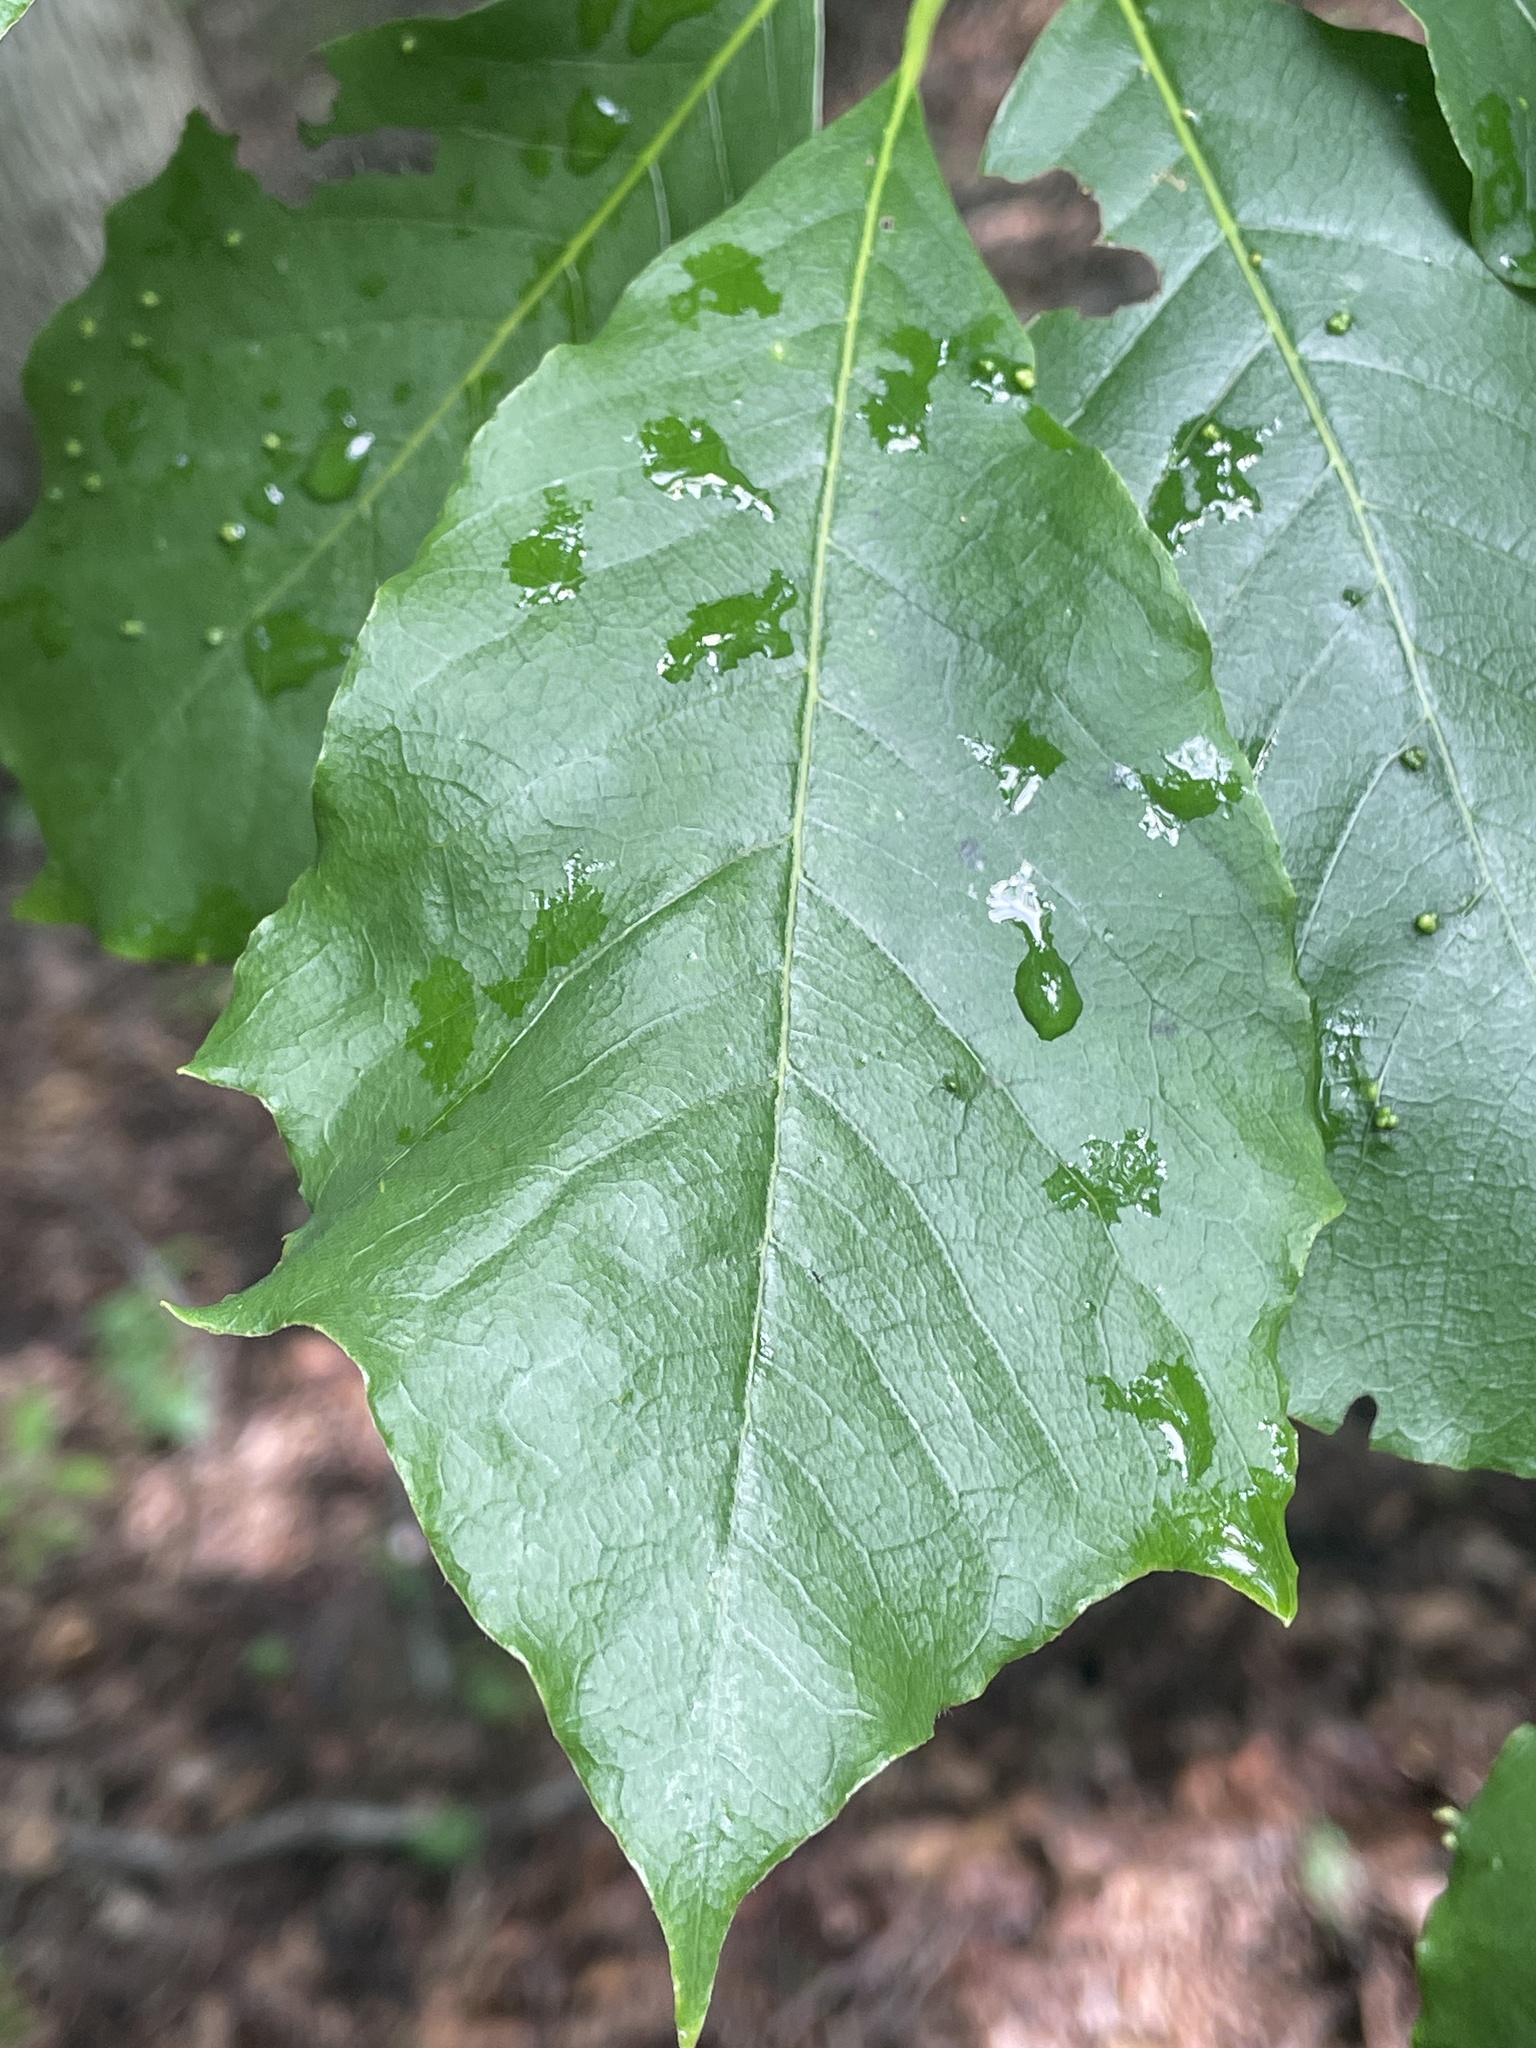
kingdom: Animalia
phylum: Arthropoda
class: Arachnida
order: Trombidiformes
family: Eriophyidae
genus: Aceria
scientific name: Aceria
